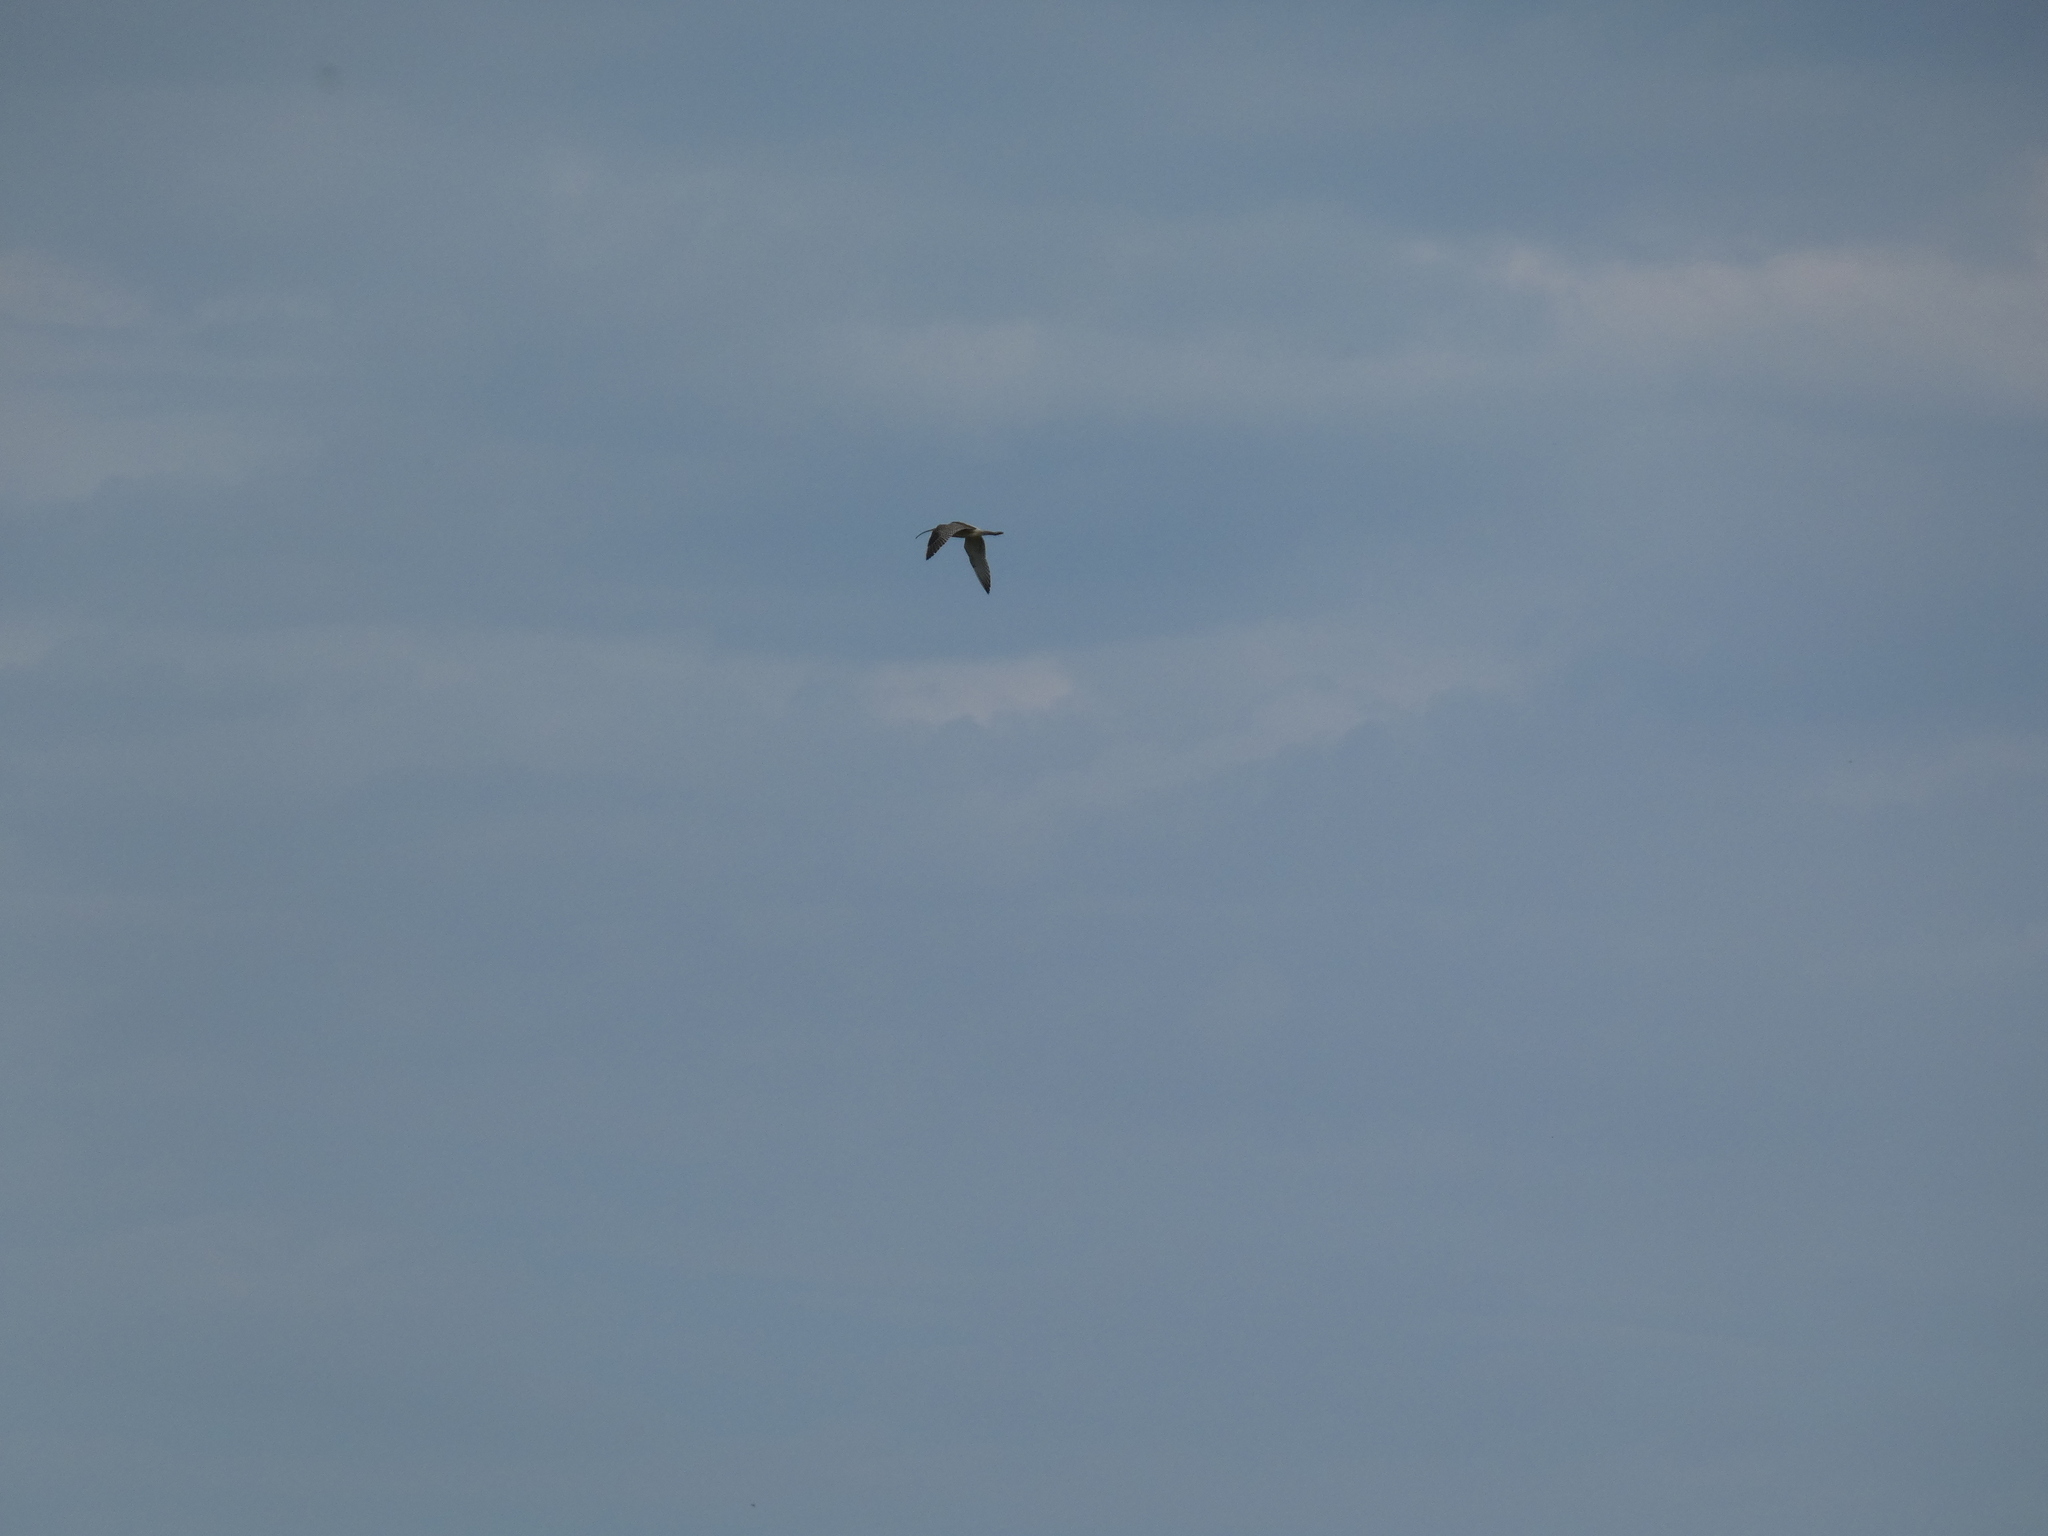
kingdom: Animalia
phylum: Chordata
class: Aves
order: Charadriiformes
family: Scolopacidae
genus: Numenius
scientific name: Numenius arquata
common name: Eurasian curlew
